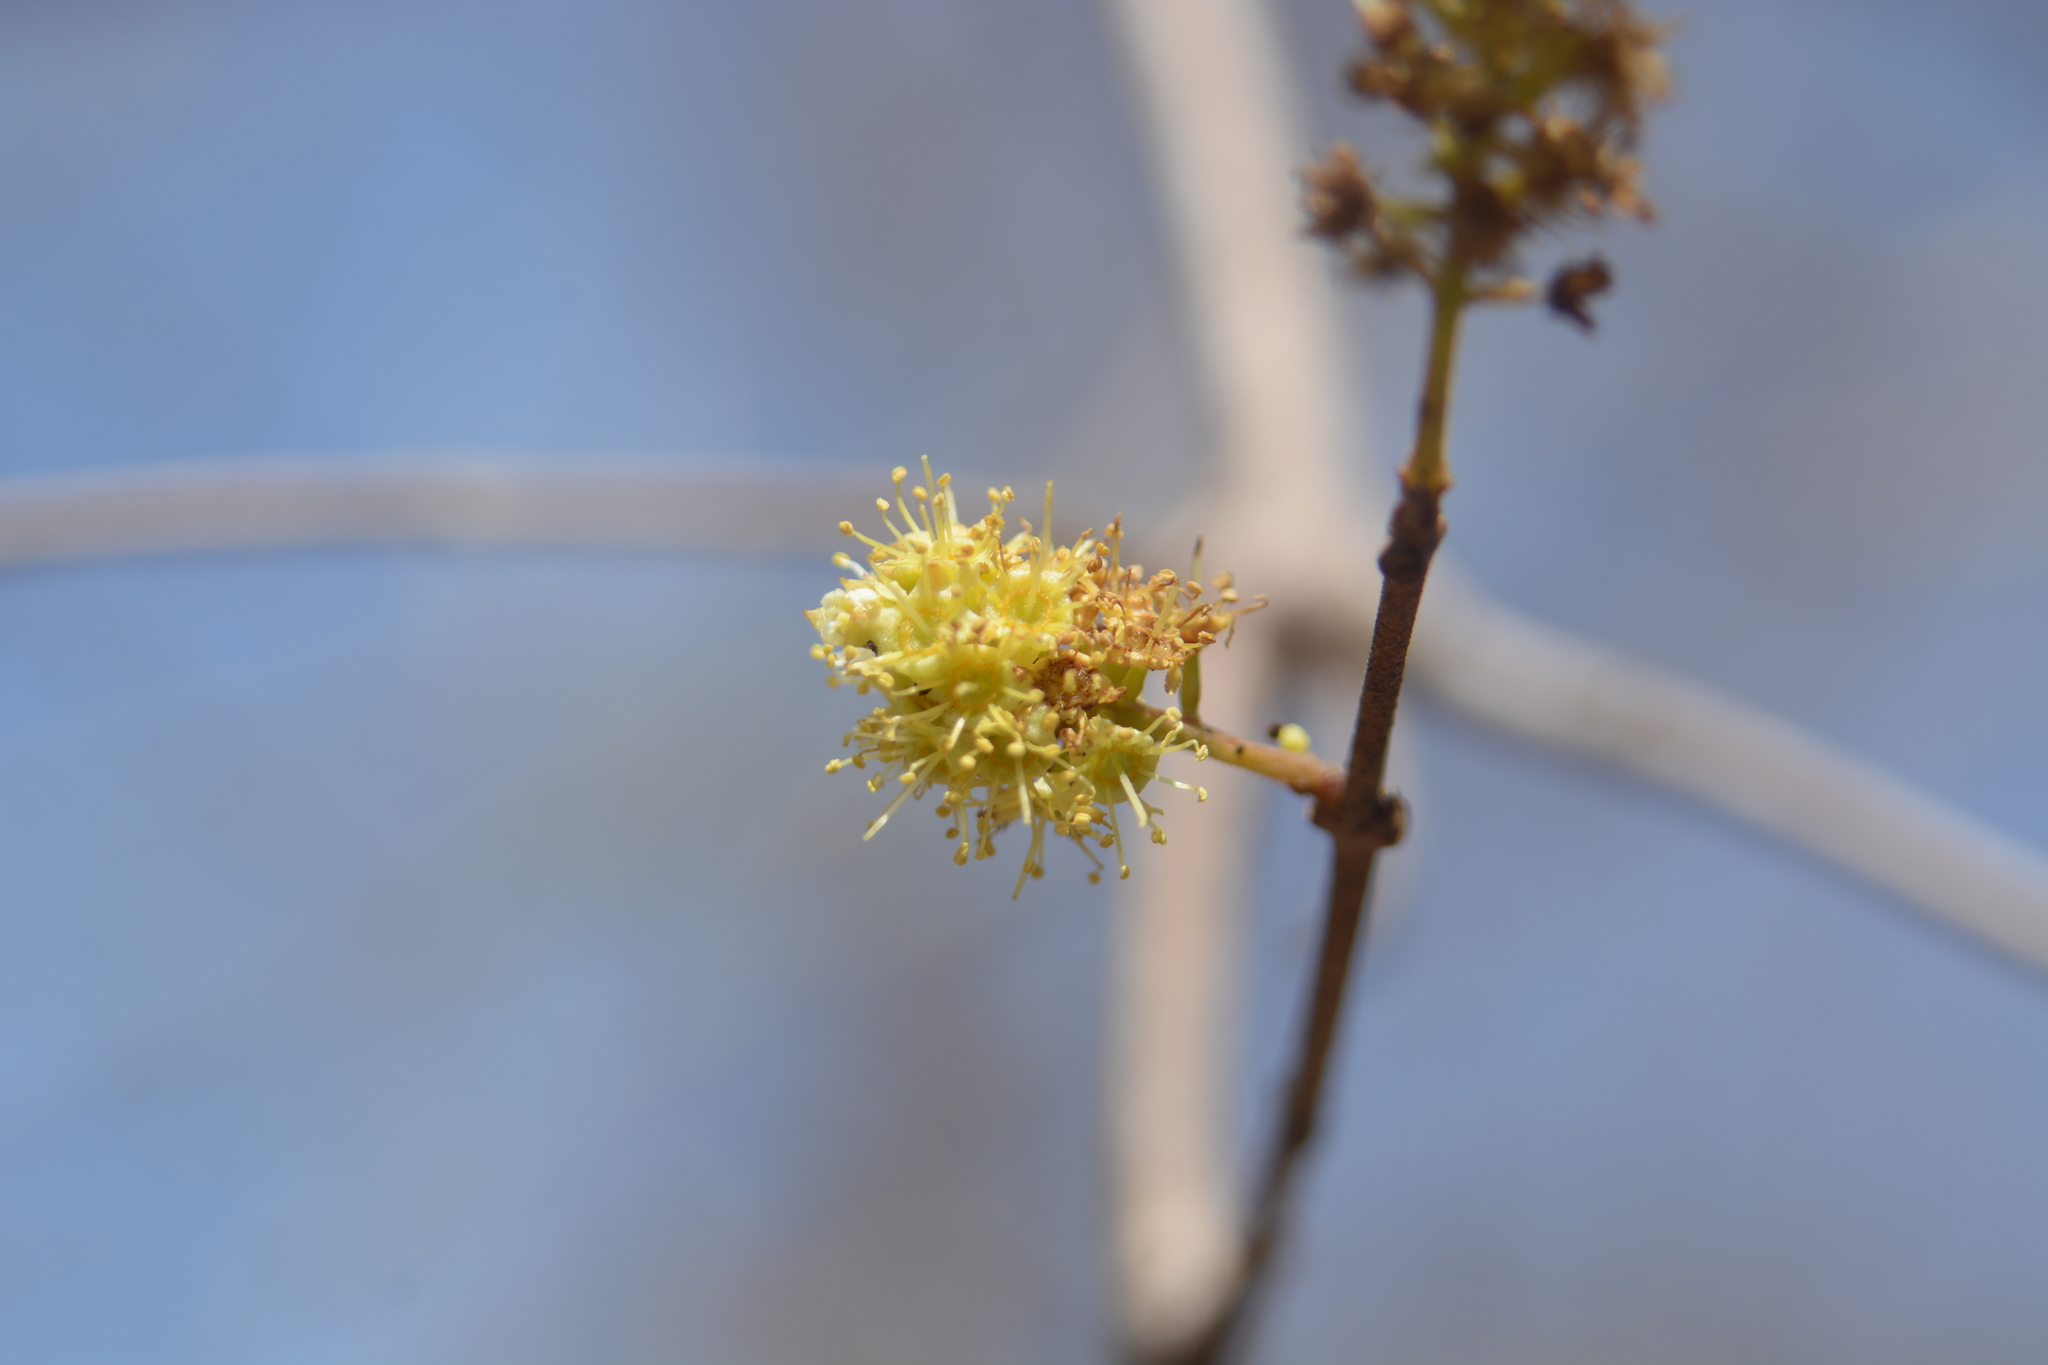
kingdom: Plantae
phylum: Tracheophyta
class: Magnoliopsida
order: Myrtales
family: Combretaceae
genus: Combretum
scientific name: Combretum albidum
